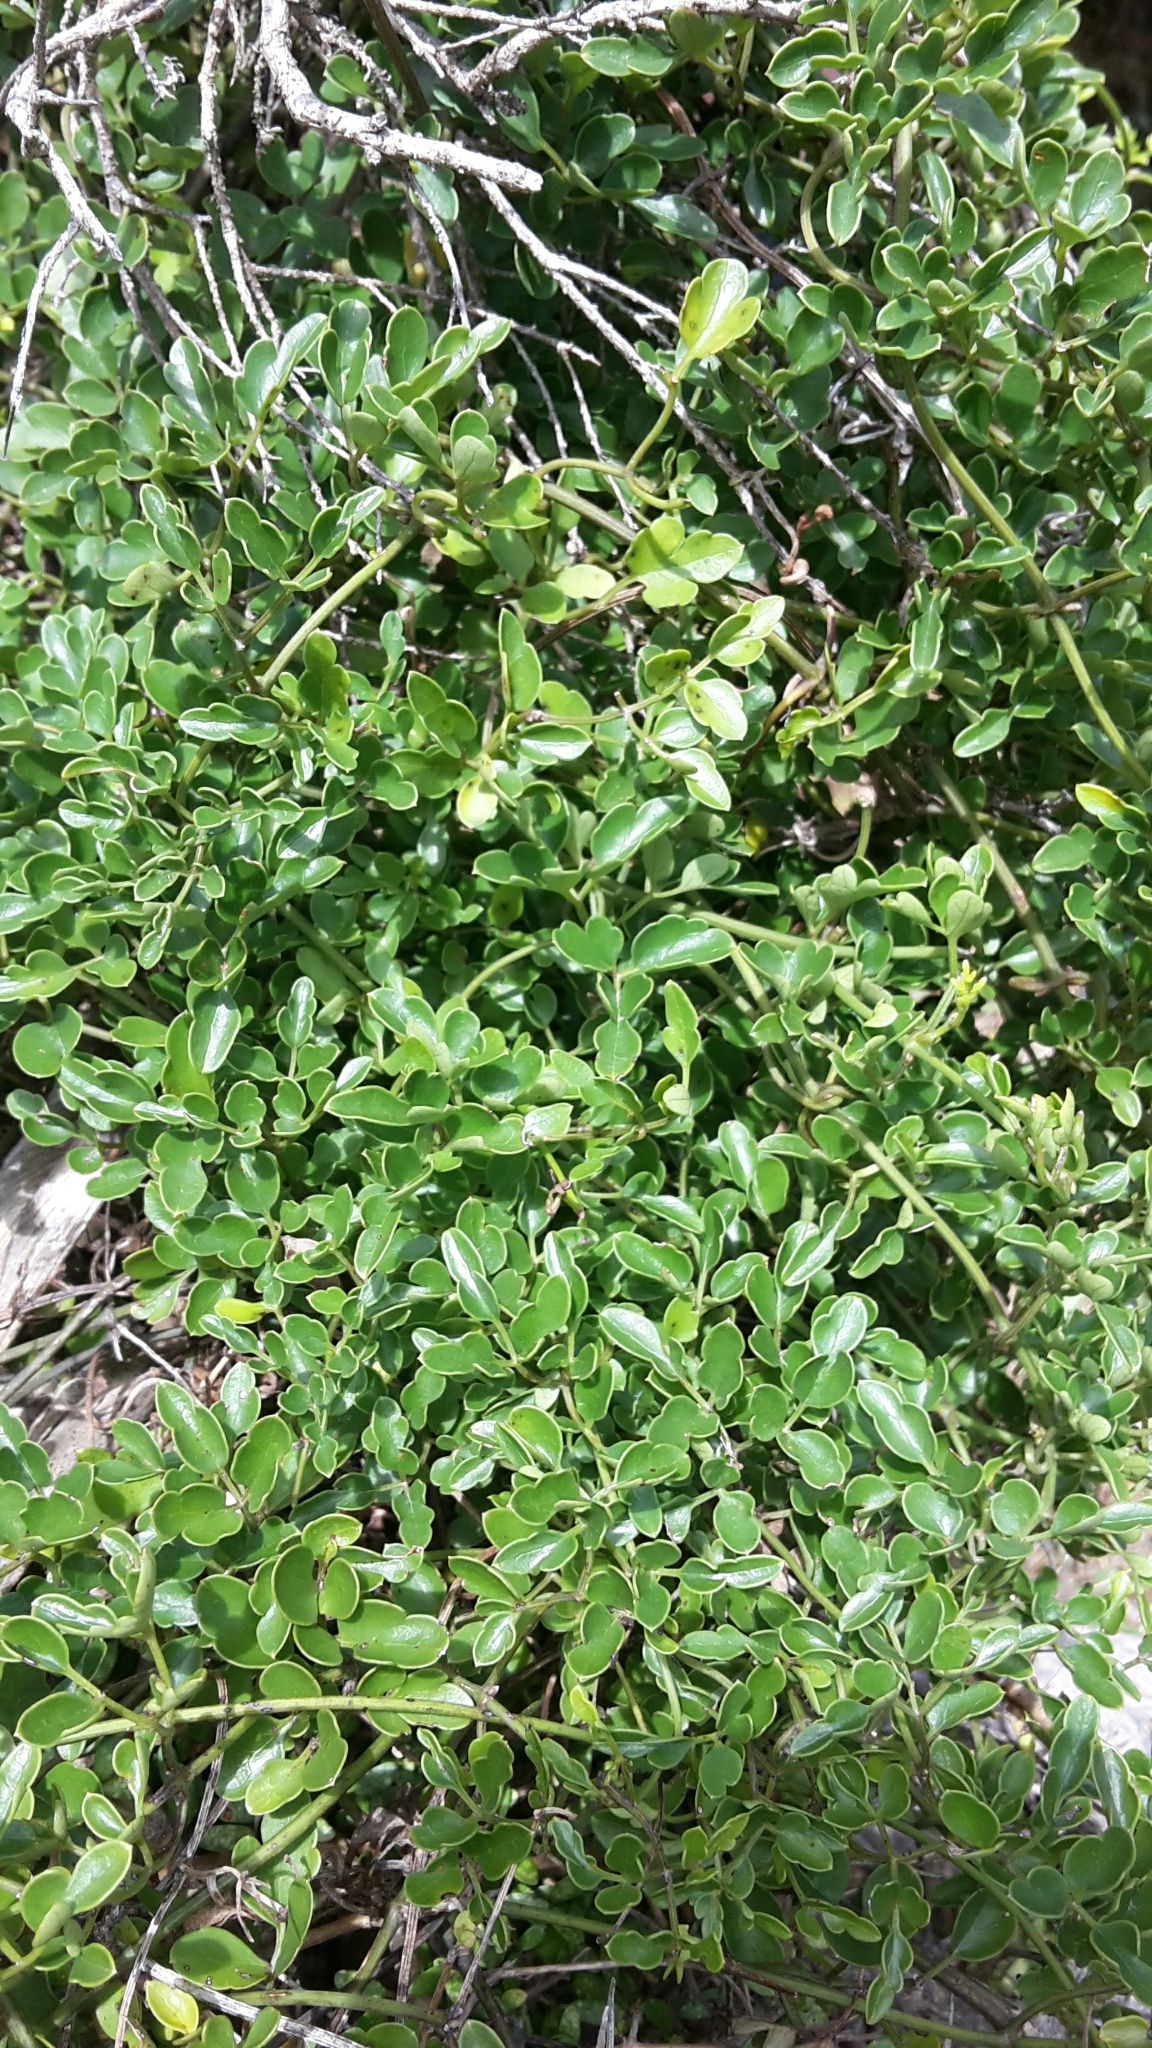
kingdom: Plantae
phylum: Tracheophyta
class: Magnoliopsida
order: Ranunculales
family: Ranunculaceae
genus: Clematis
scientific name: Clematis forsteri
